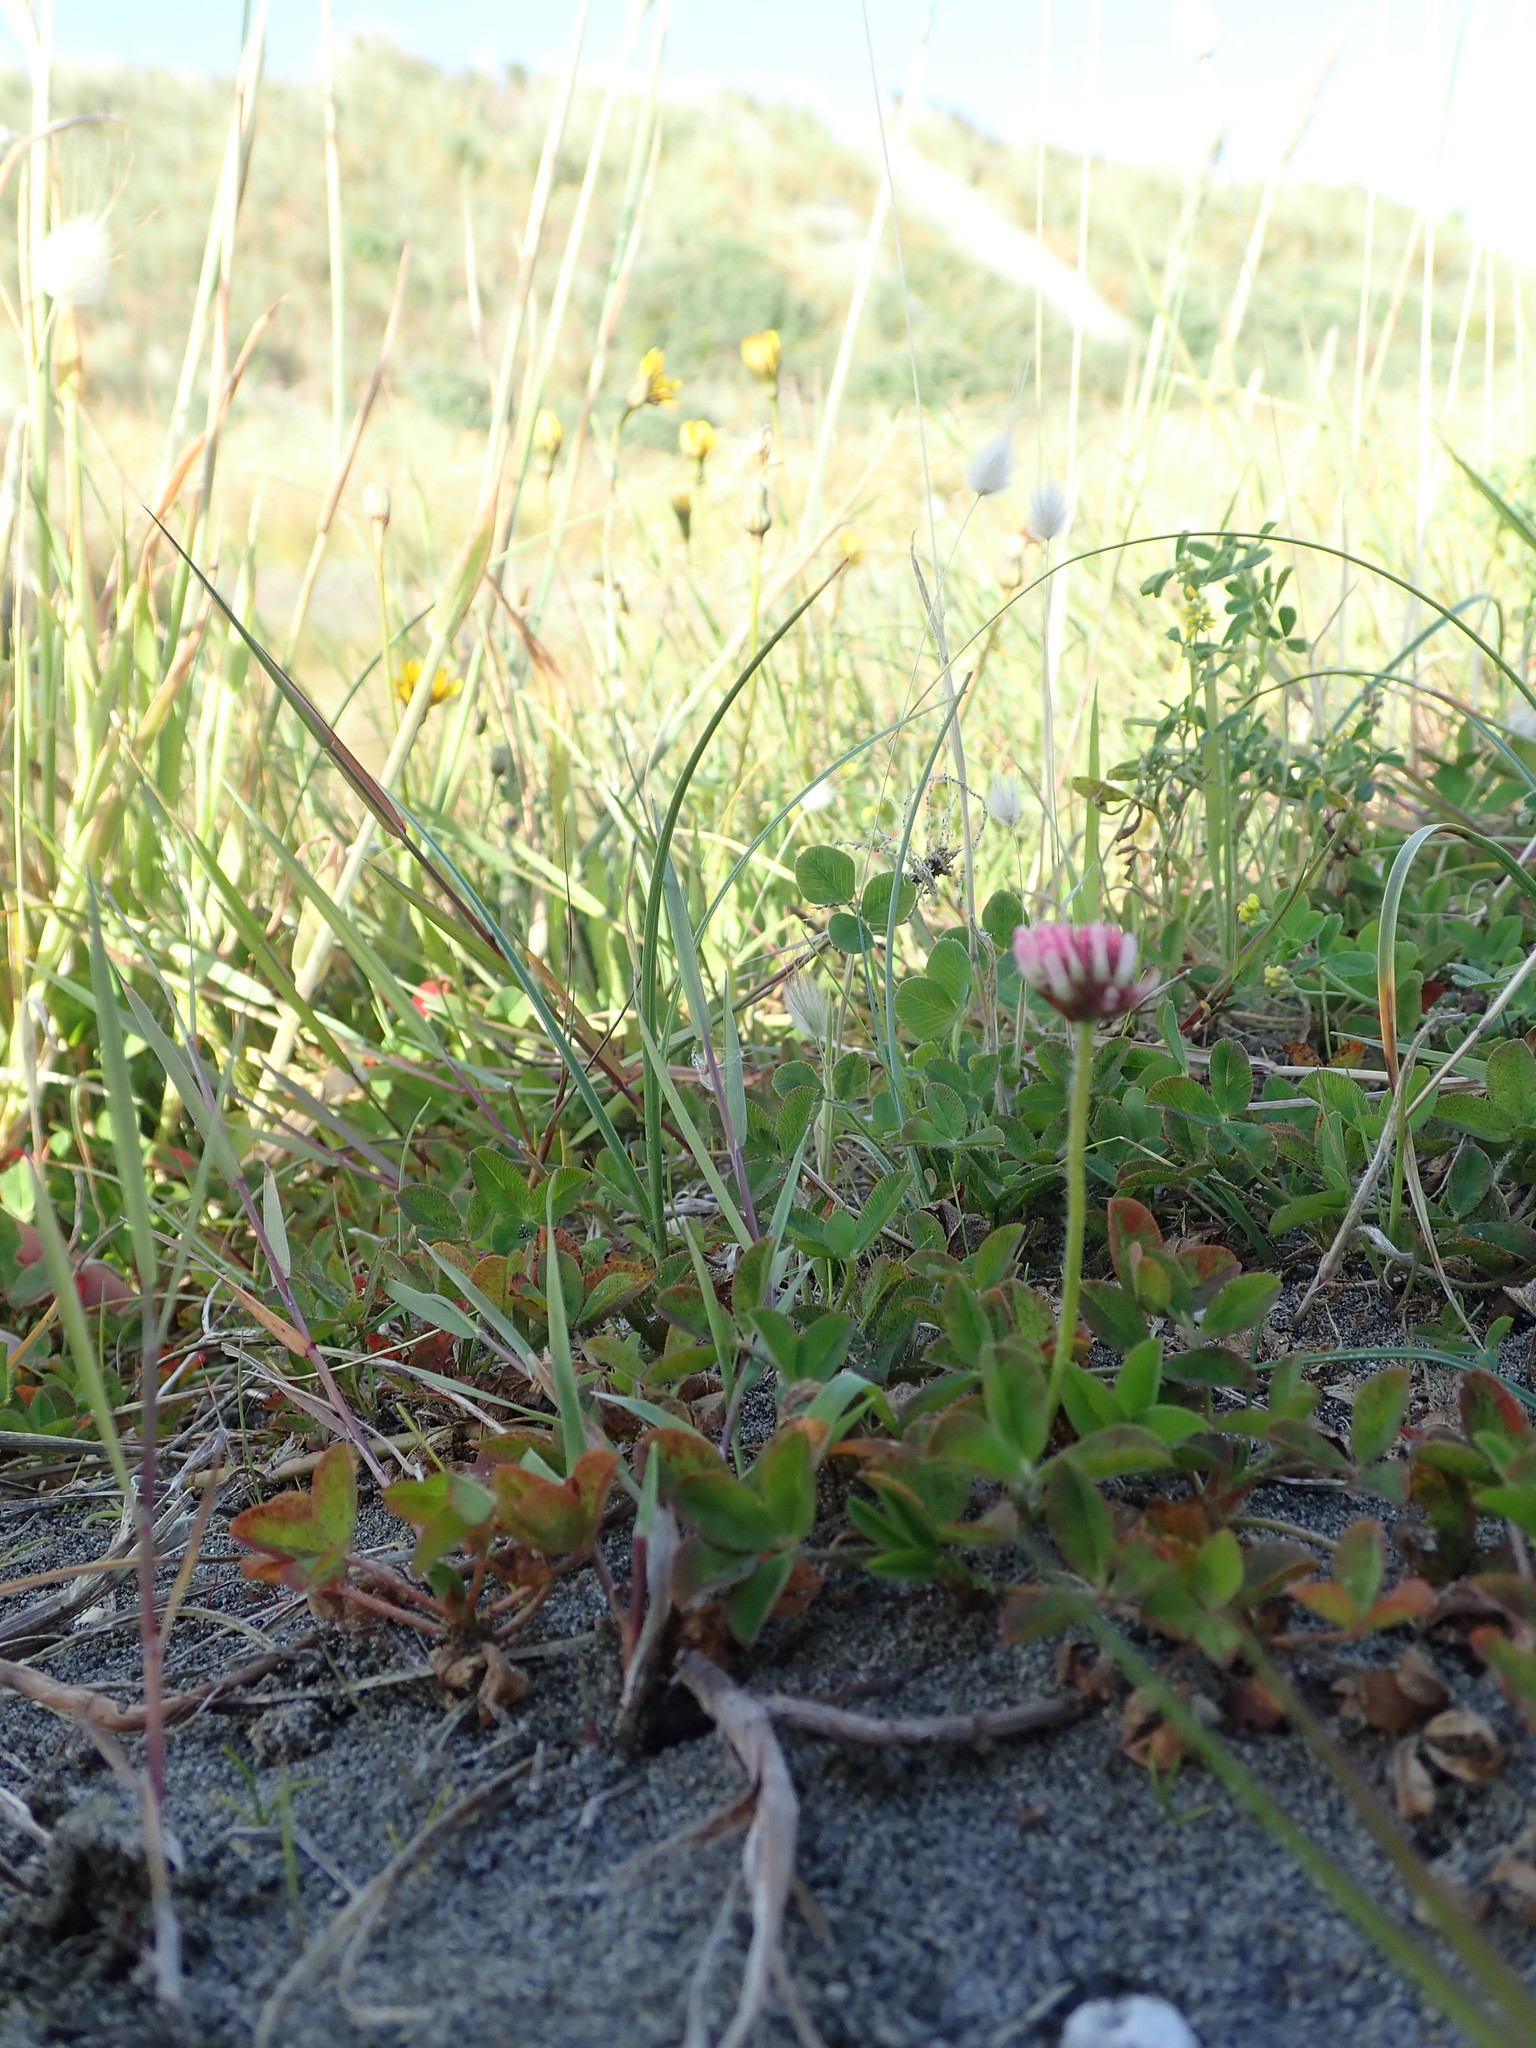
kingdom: Plantae
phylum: Tracheophyta
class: Magnoliopsida
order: Fabales
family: Fabaceae
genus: Trifolium
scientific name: Trifolium fragiferum
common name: Strawberry clover
